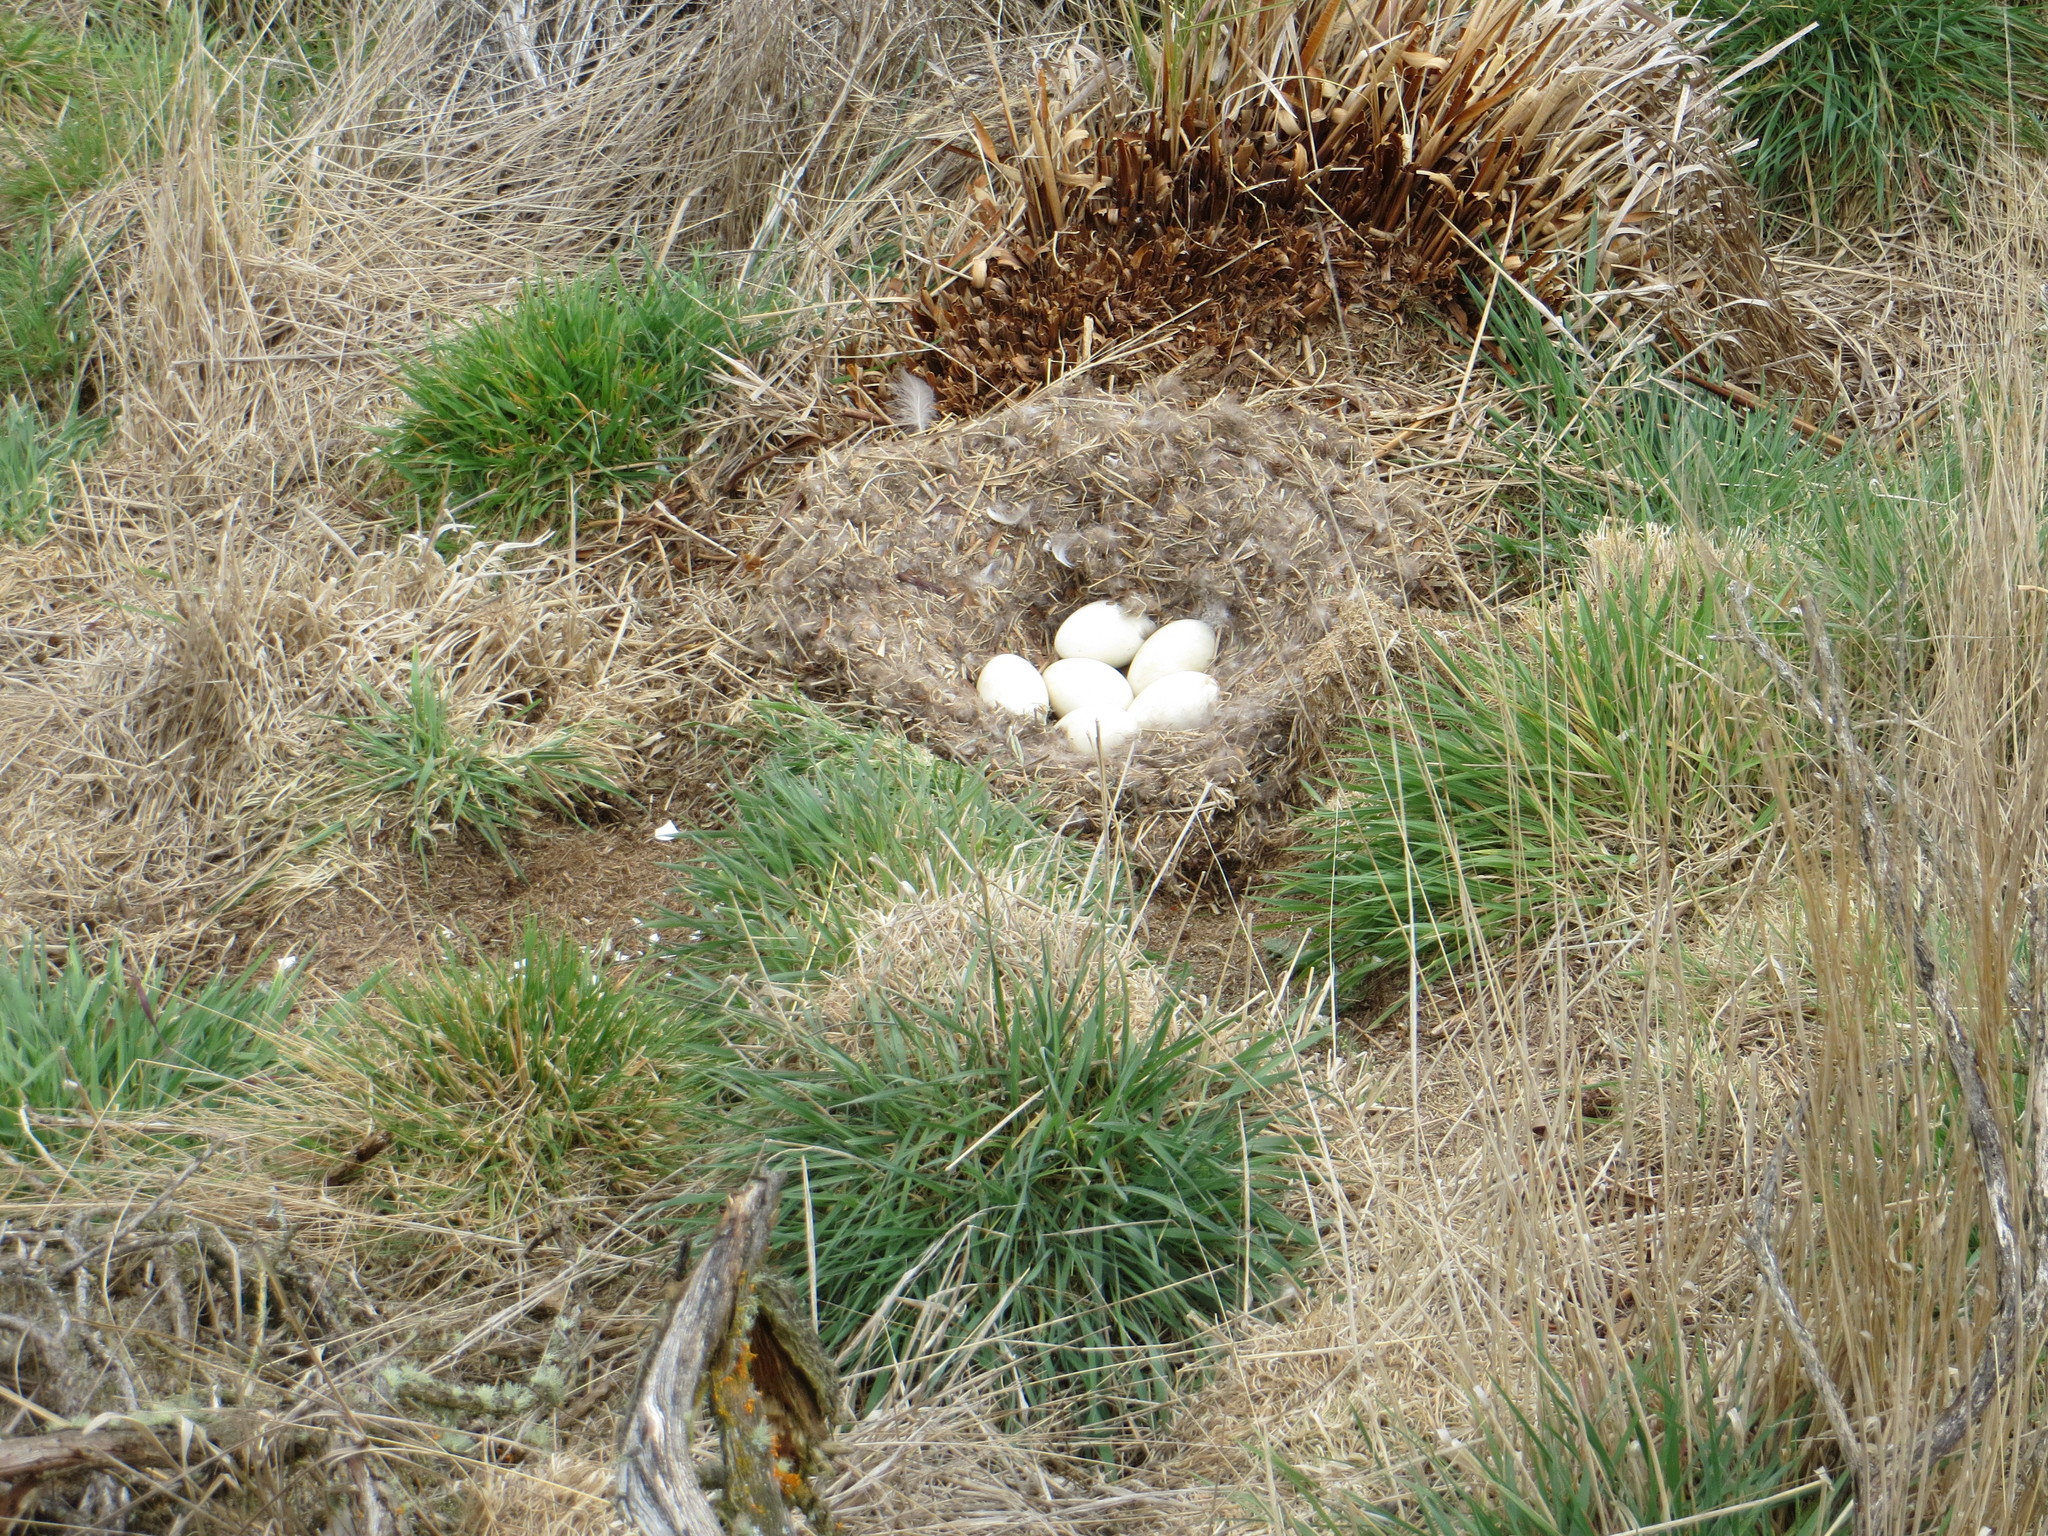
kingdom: Animalia
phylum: Chordata
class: Aves
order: Anseriformes
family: Anatidae
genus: Branta
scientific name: Branta canadensis
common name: Canada goose
